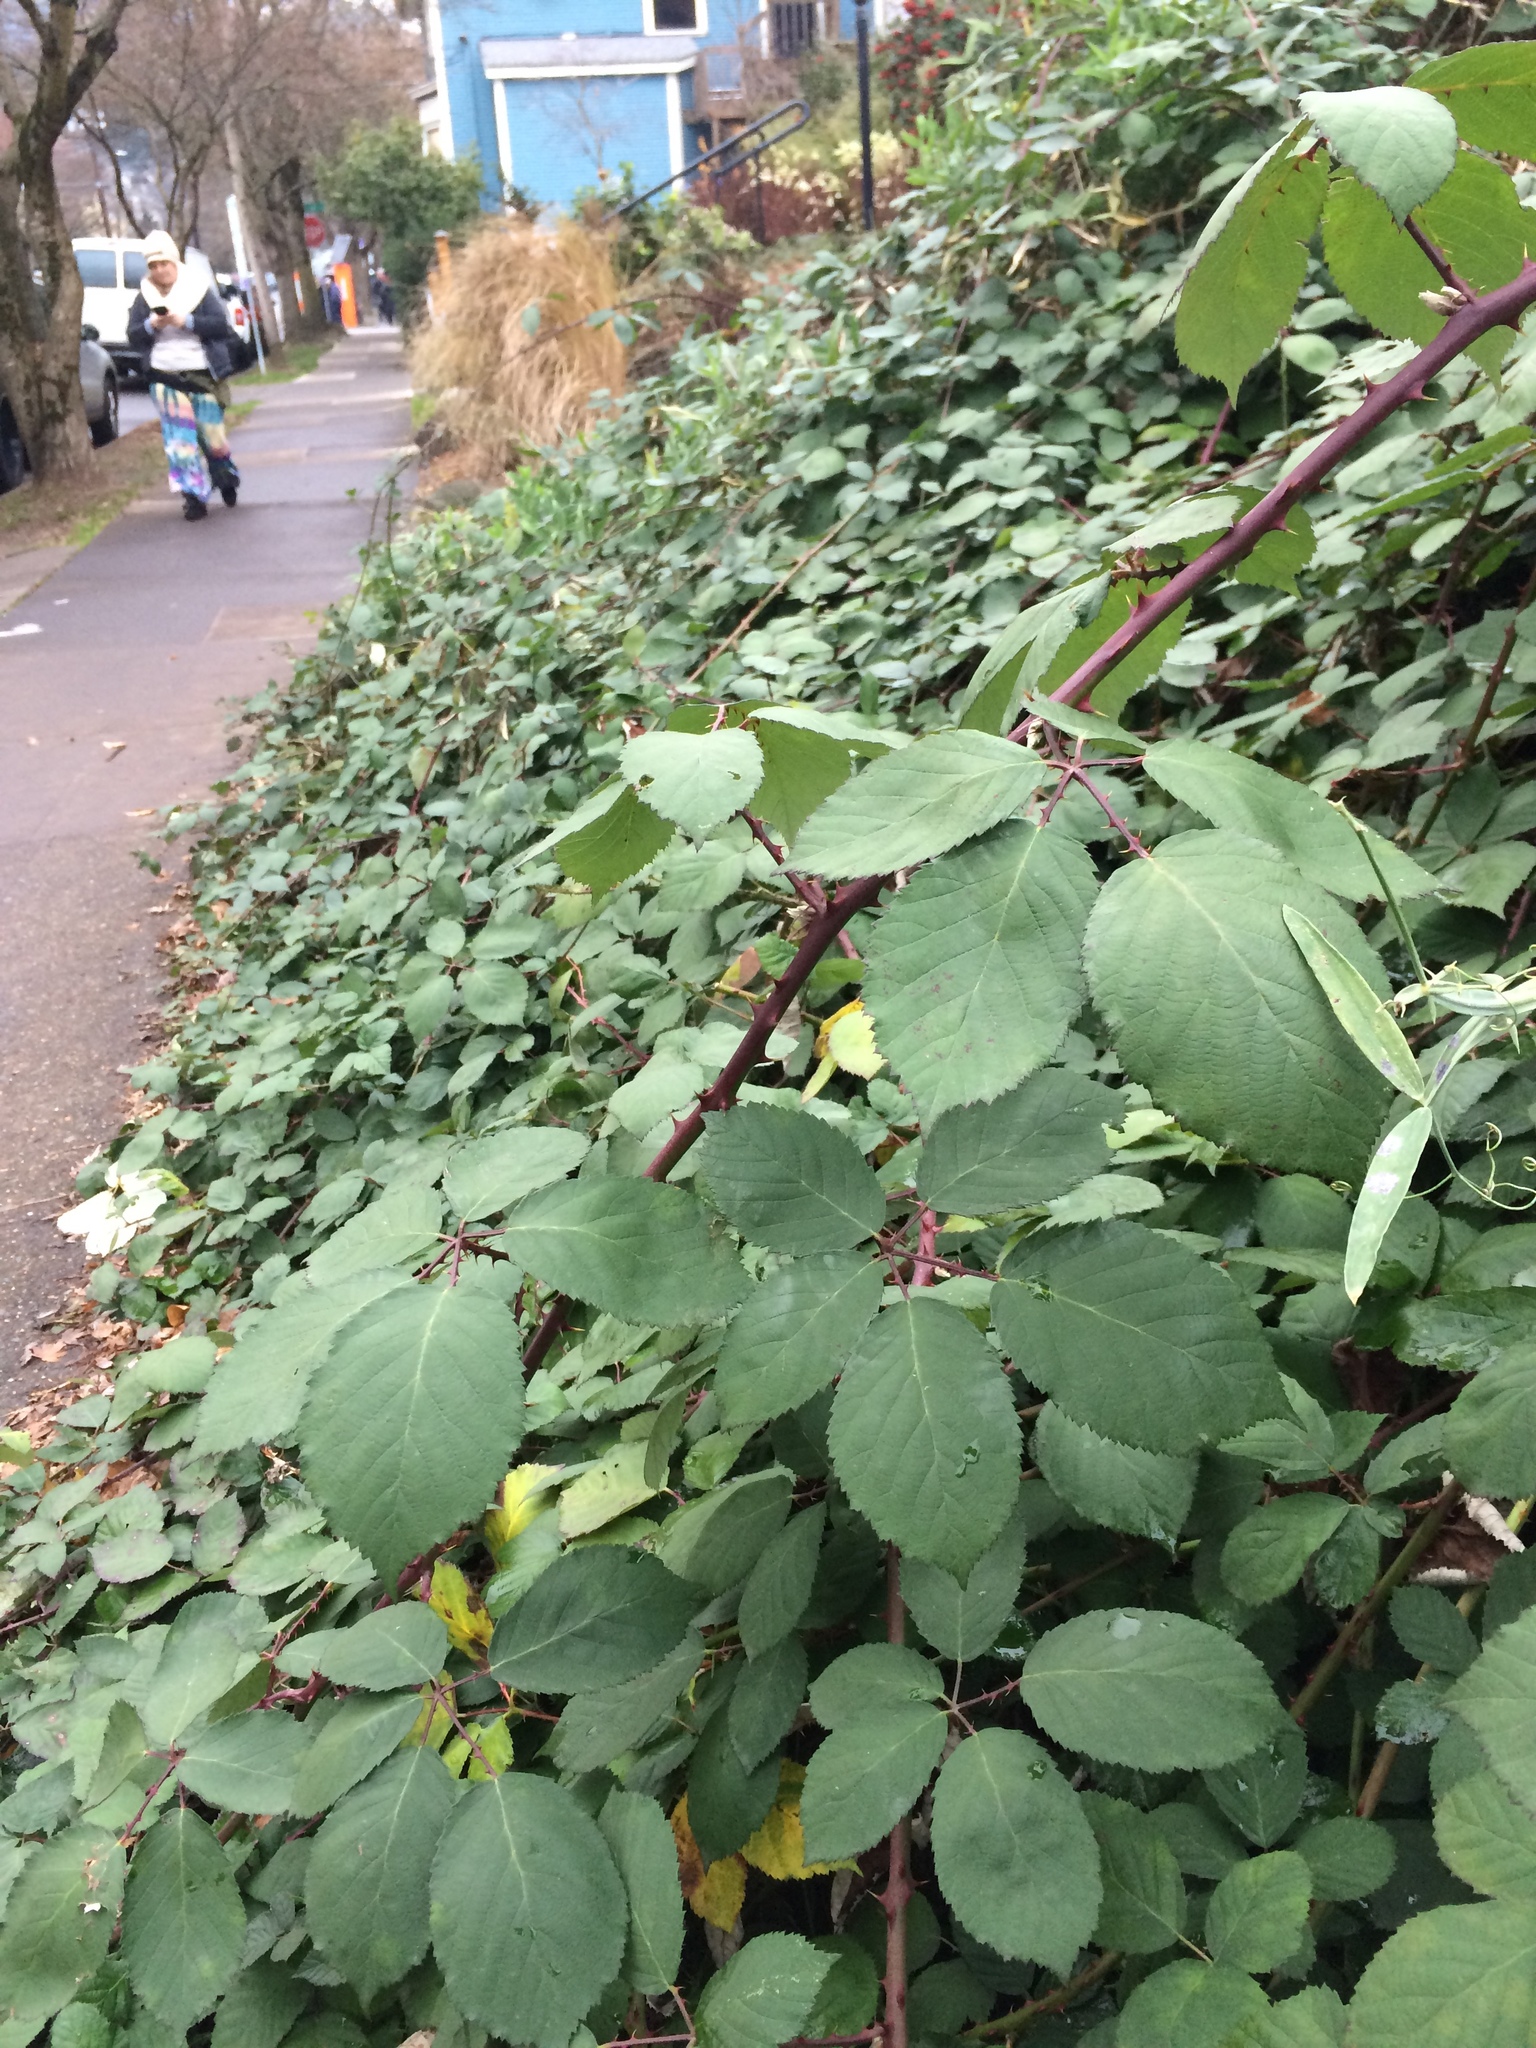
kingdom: Plantae
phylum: Tracheophyta
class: Magnoliopsida
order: Rosales
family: Rosaceae
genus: Rubus
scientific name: Rubus armeniacus
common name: Himalayan blackberry
